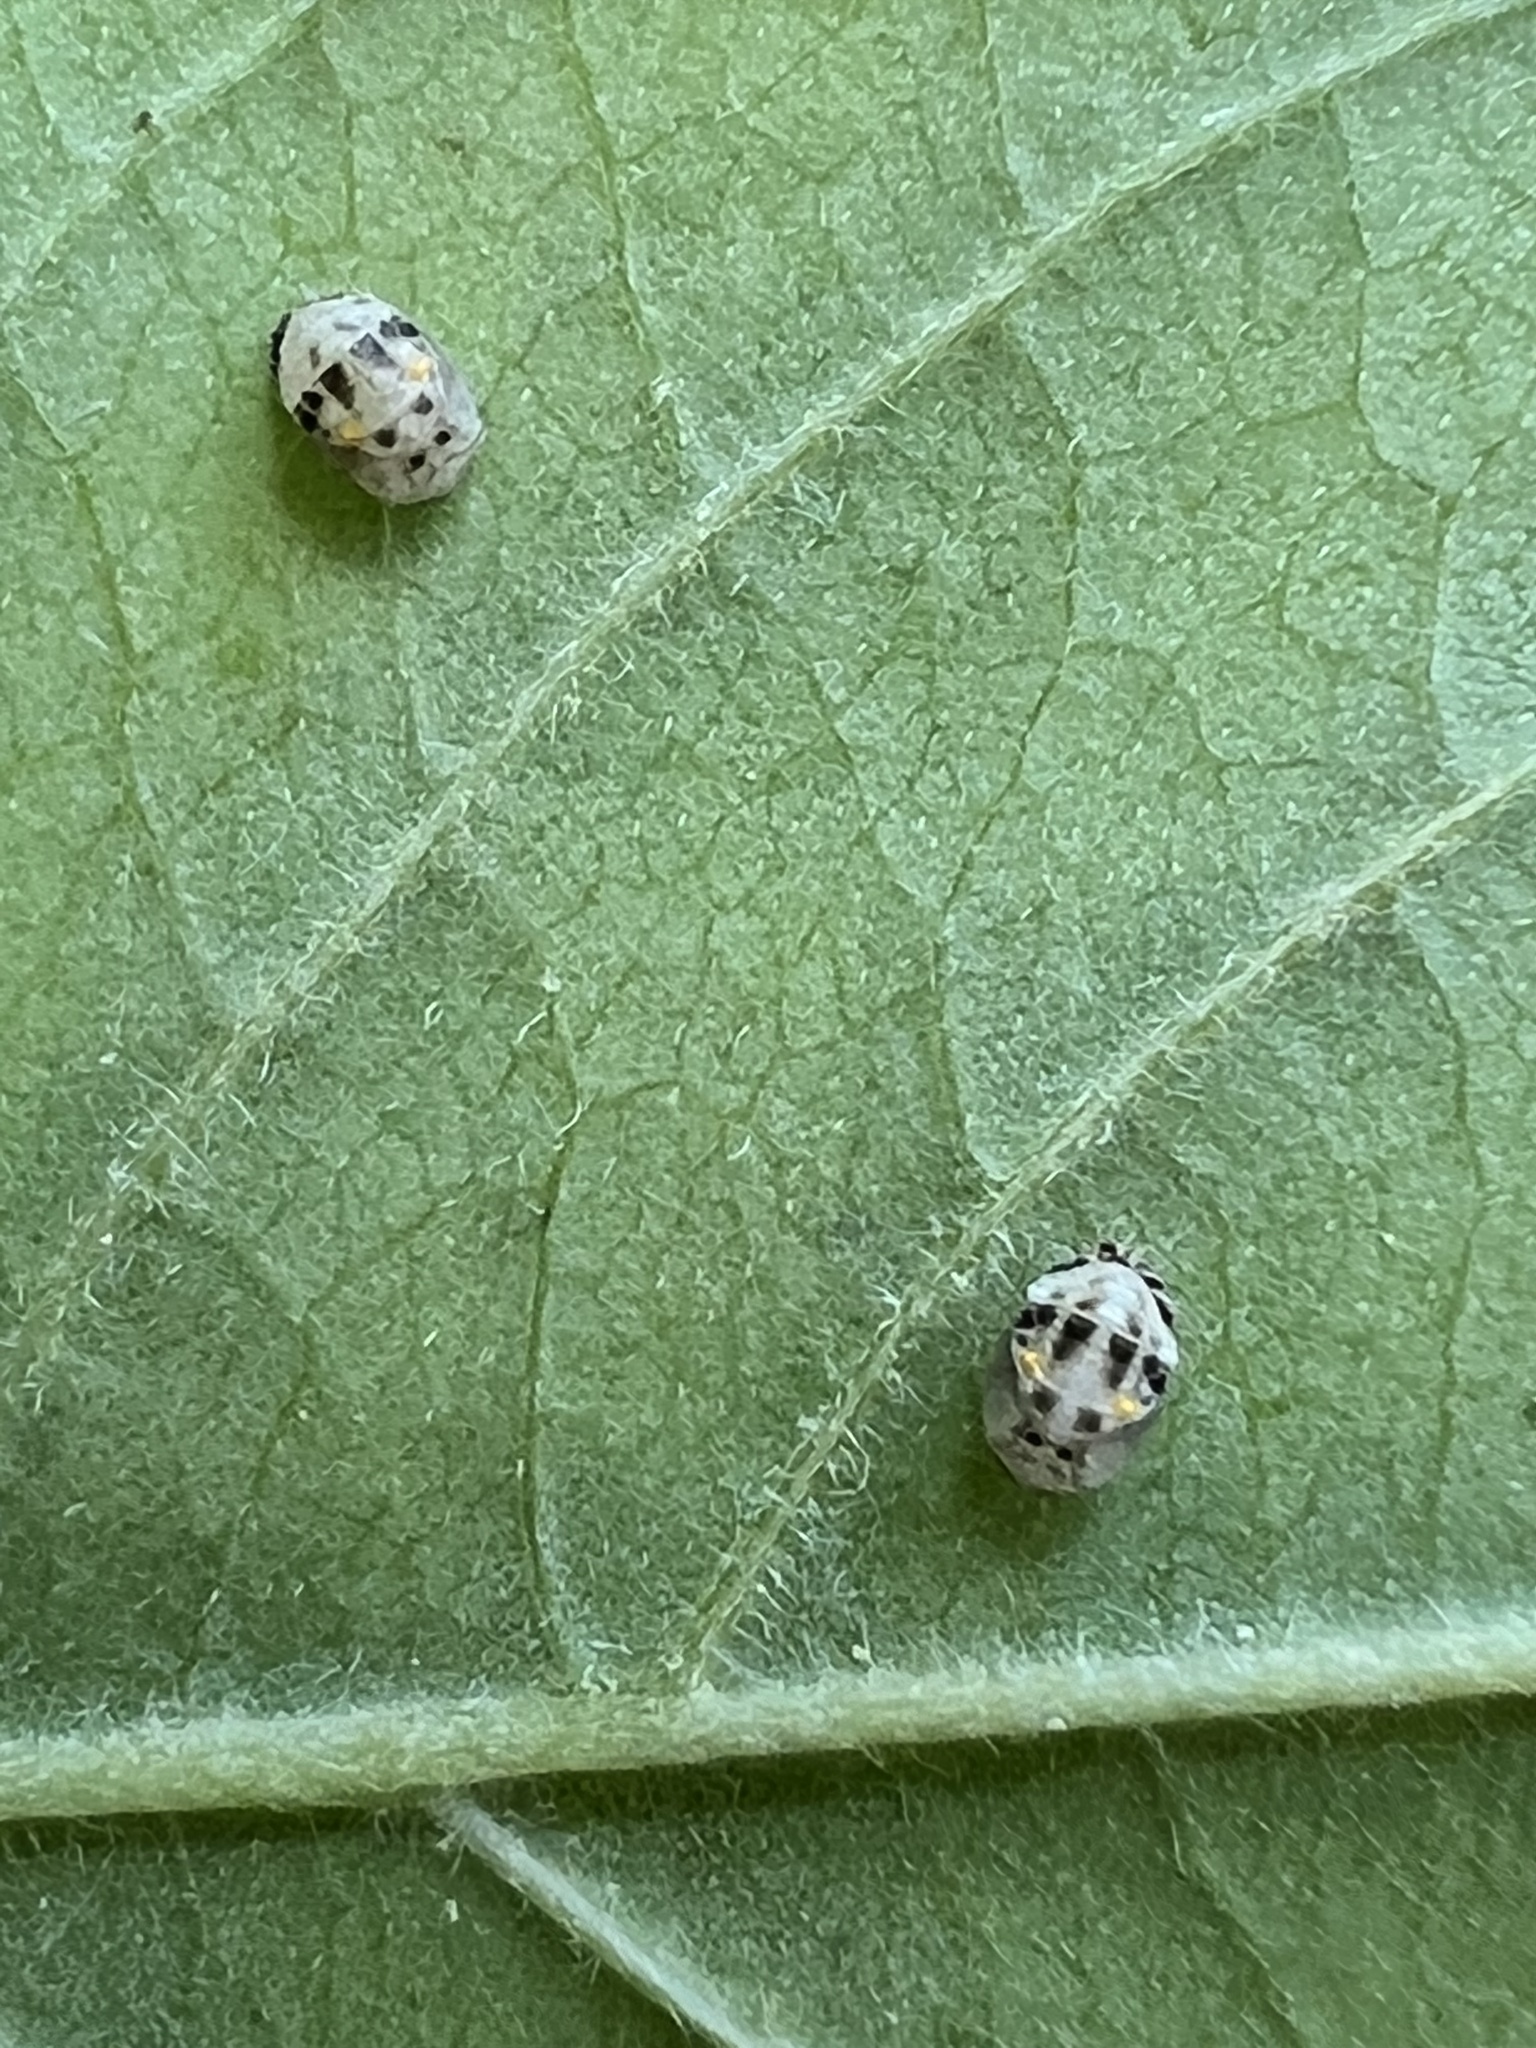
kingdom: Animalia
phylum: Arthropoda
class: Insecta
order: Coleoptera
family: Coccinellidae
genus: Psyllobora
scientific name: Psyllobora vigintimaculata
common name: Ladybird beetle
